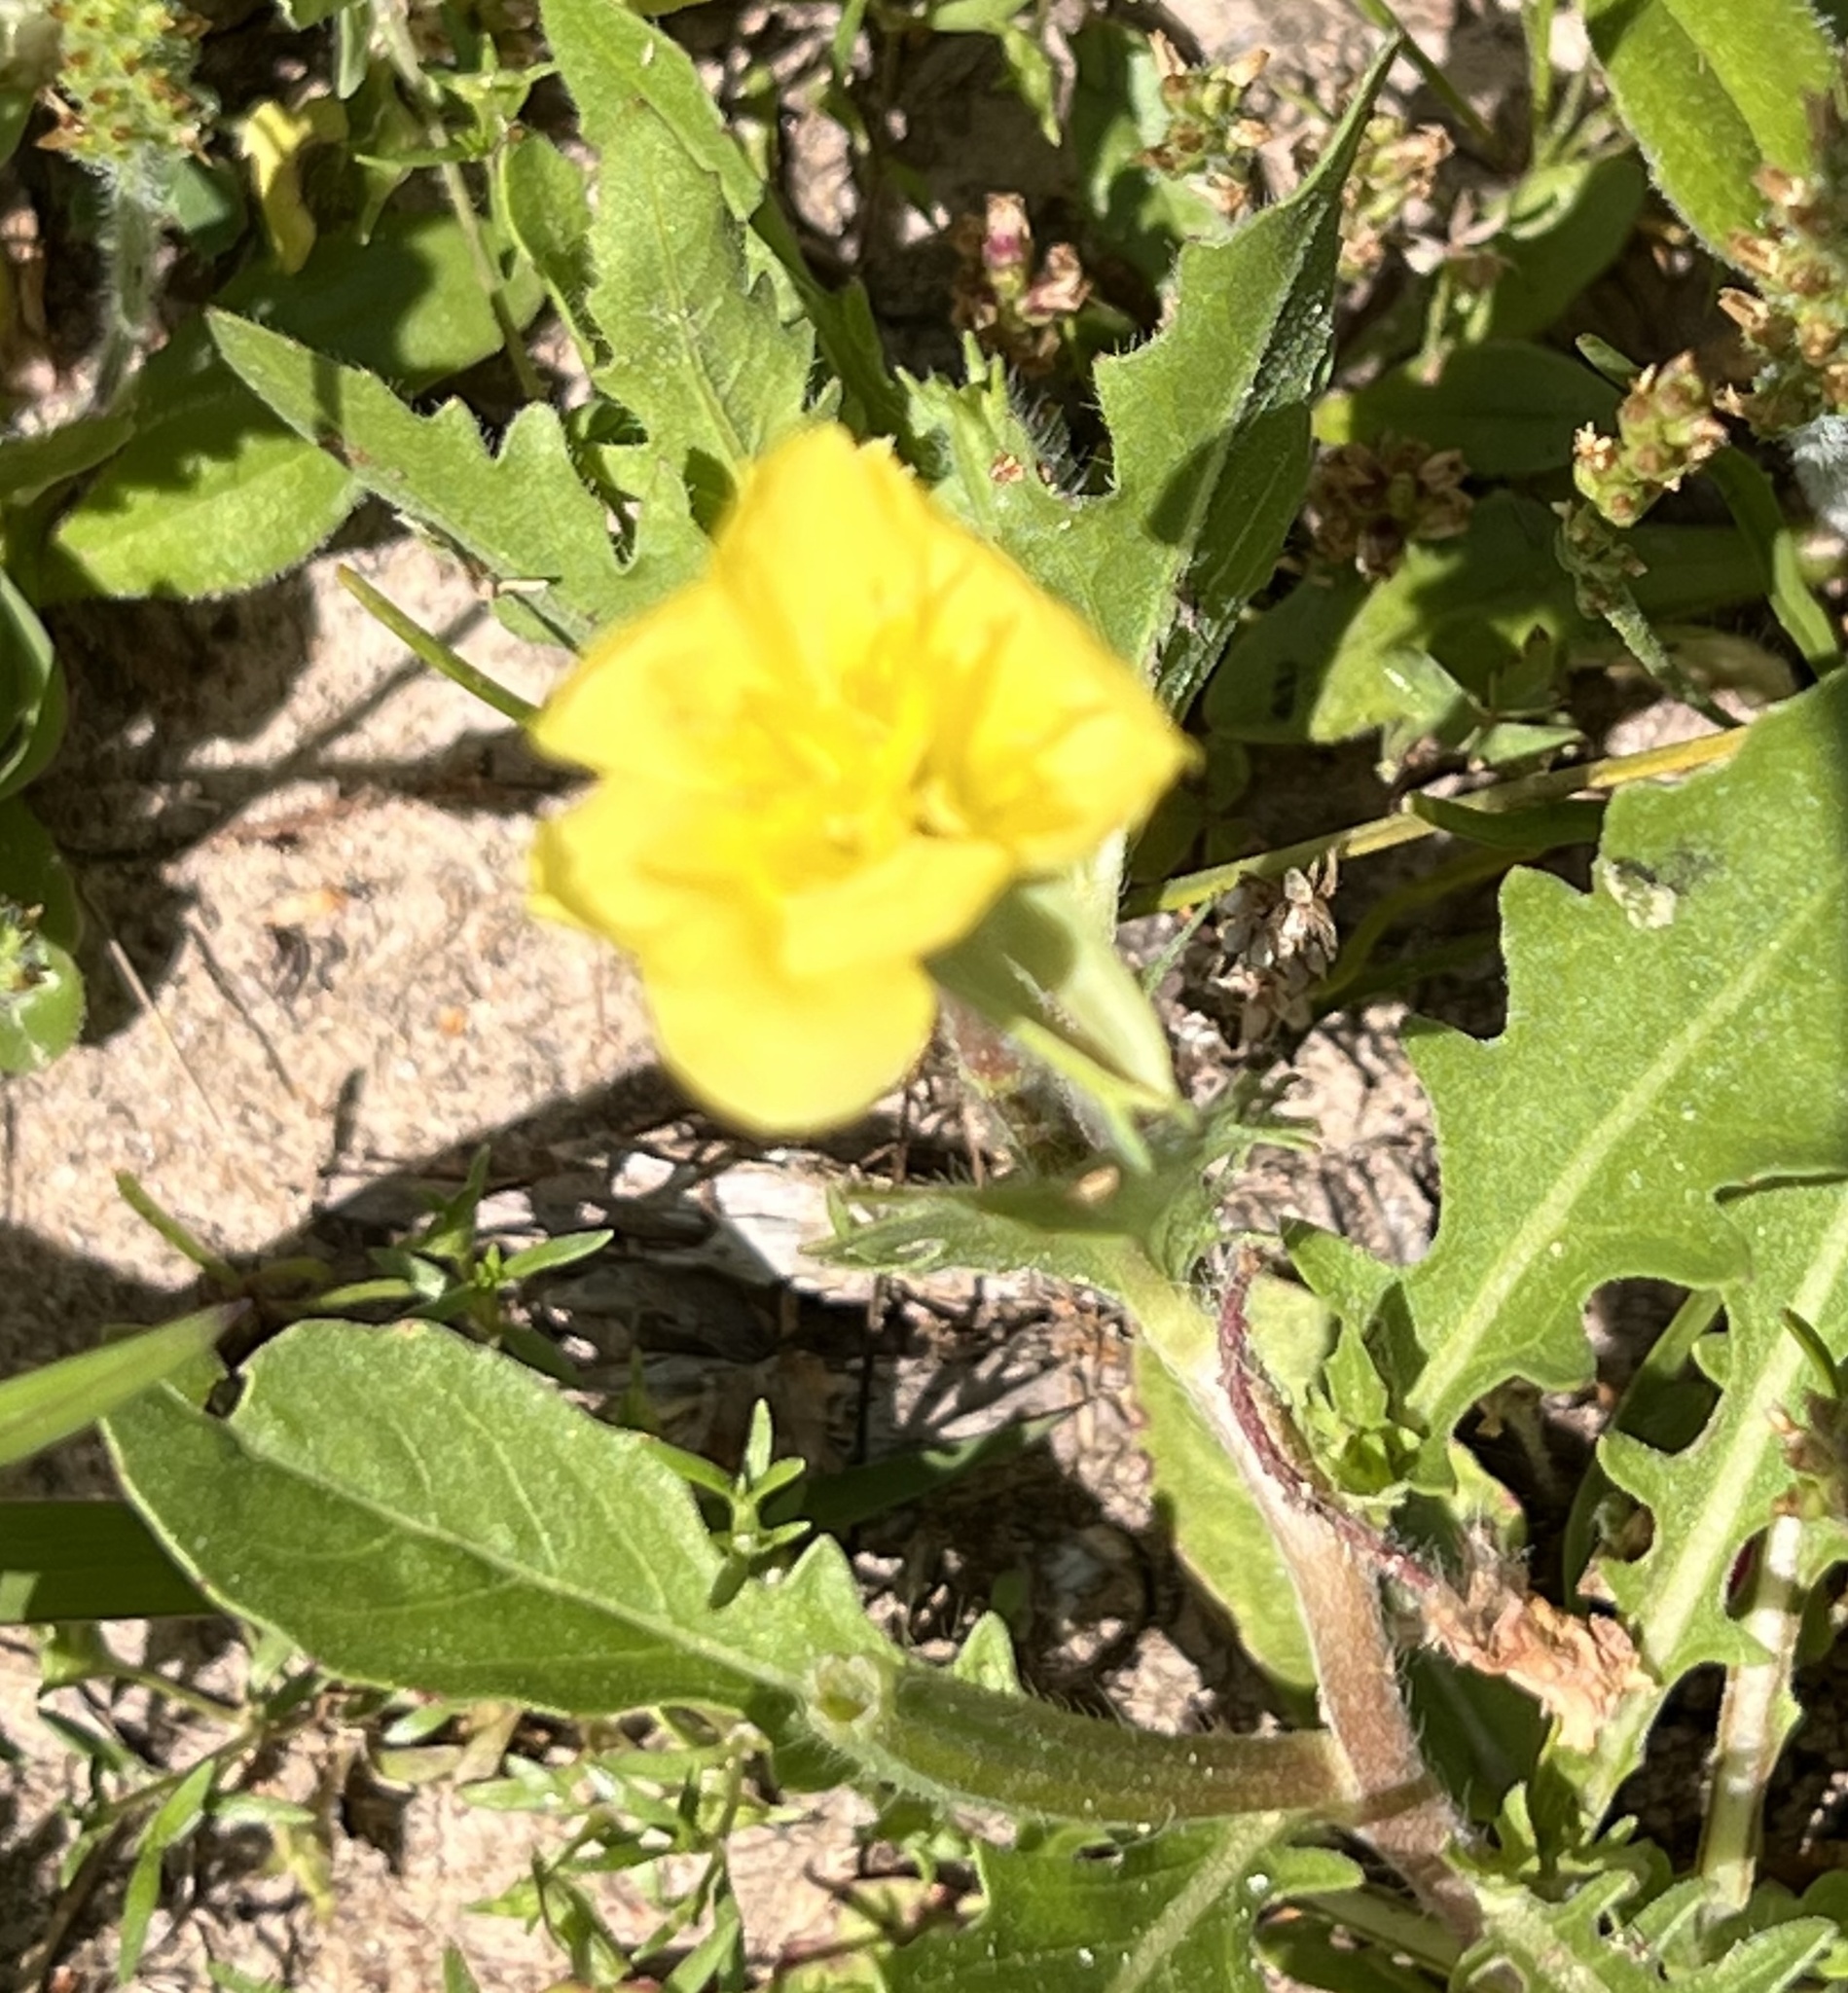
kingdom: Plantae
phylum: Tracheophyta
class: Magnoliopsida
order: Myrtales
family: Onagraceae
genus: Oenothera
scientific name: Oenothera laciniata
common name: Cut-leaved evening-primrose
